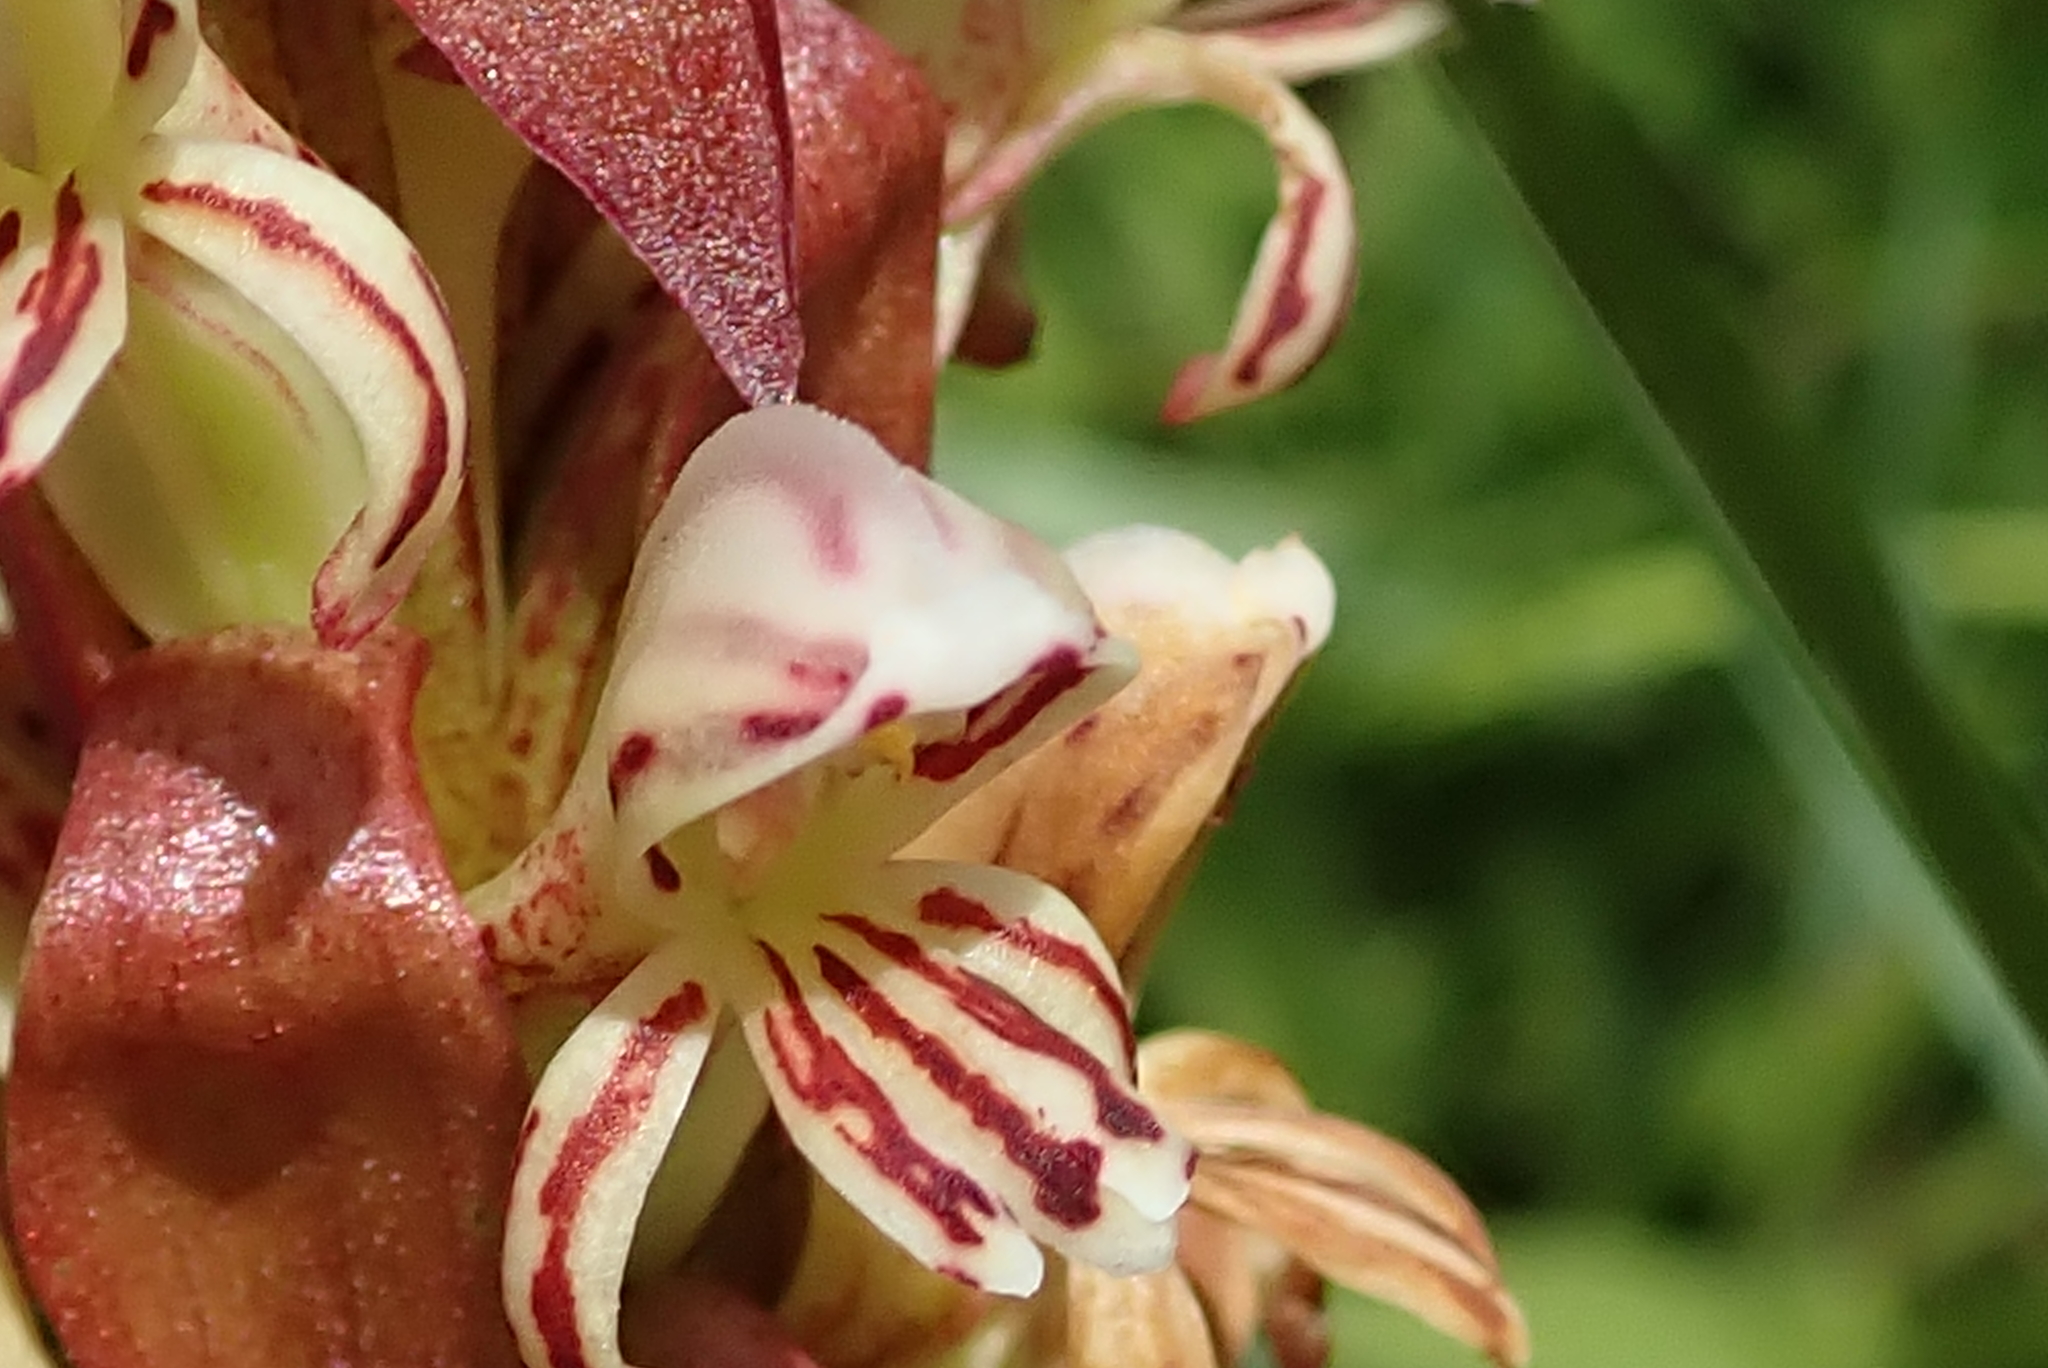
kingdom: Plantae
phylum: Tracheophyta
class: Liliopsida
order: Asparagales
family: Orchidaceae
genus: Satyrium
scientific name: Satyrium cristatum
